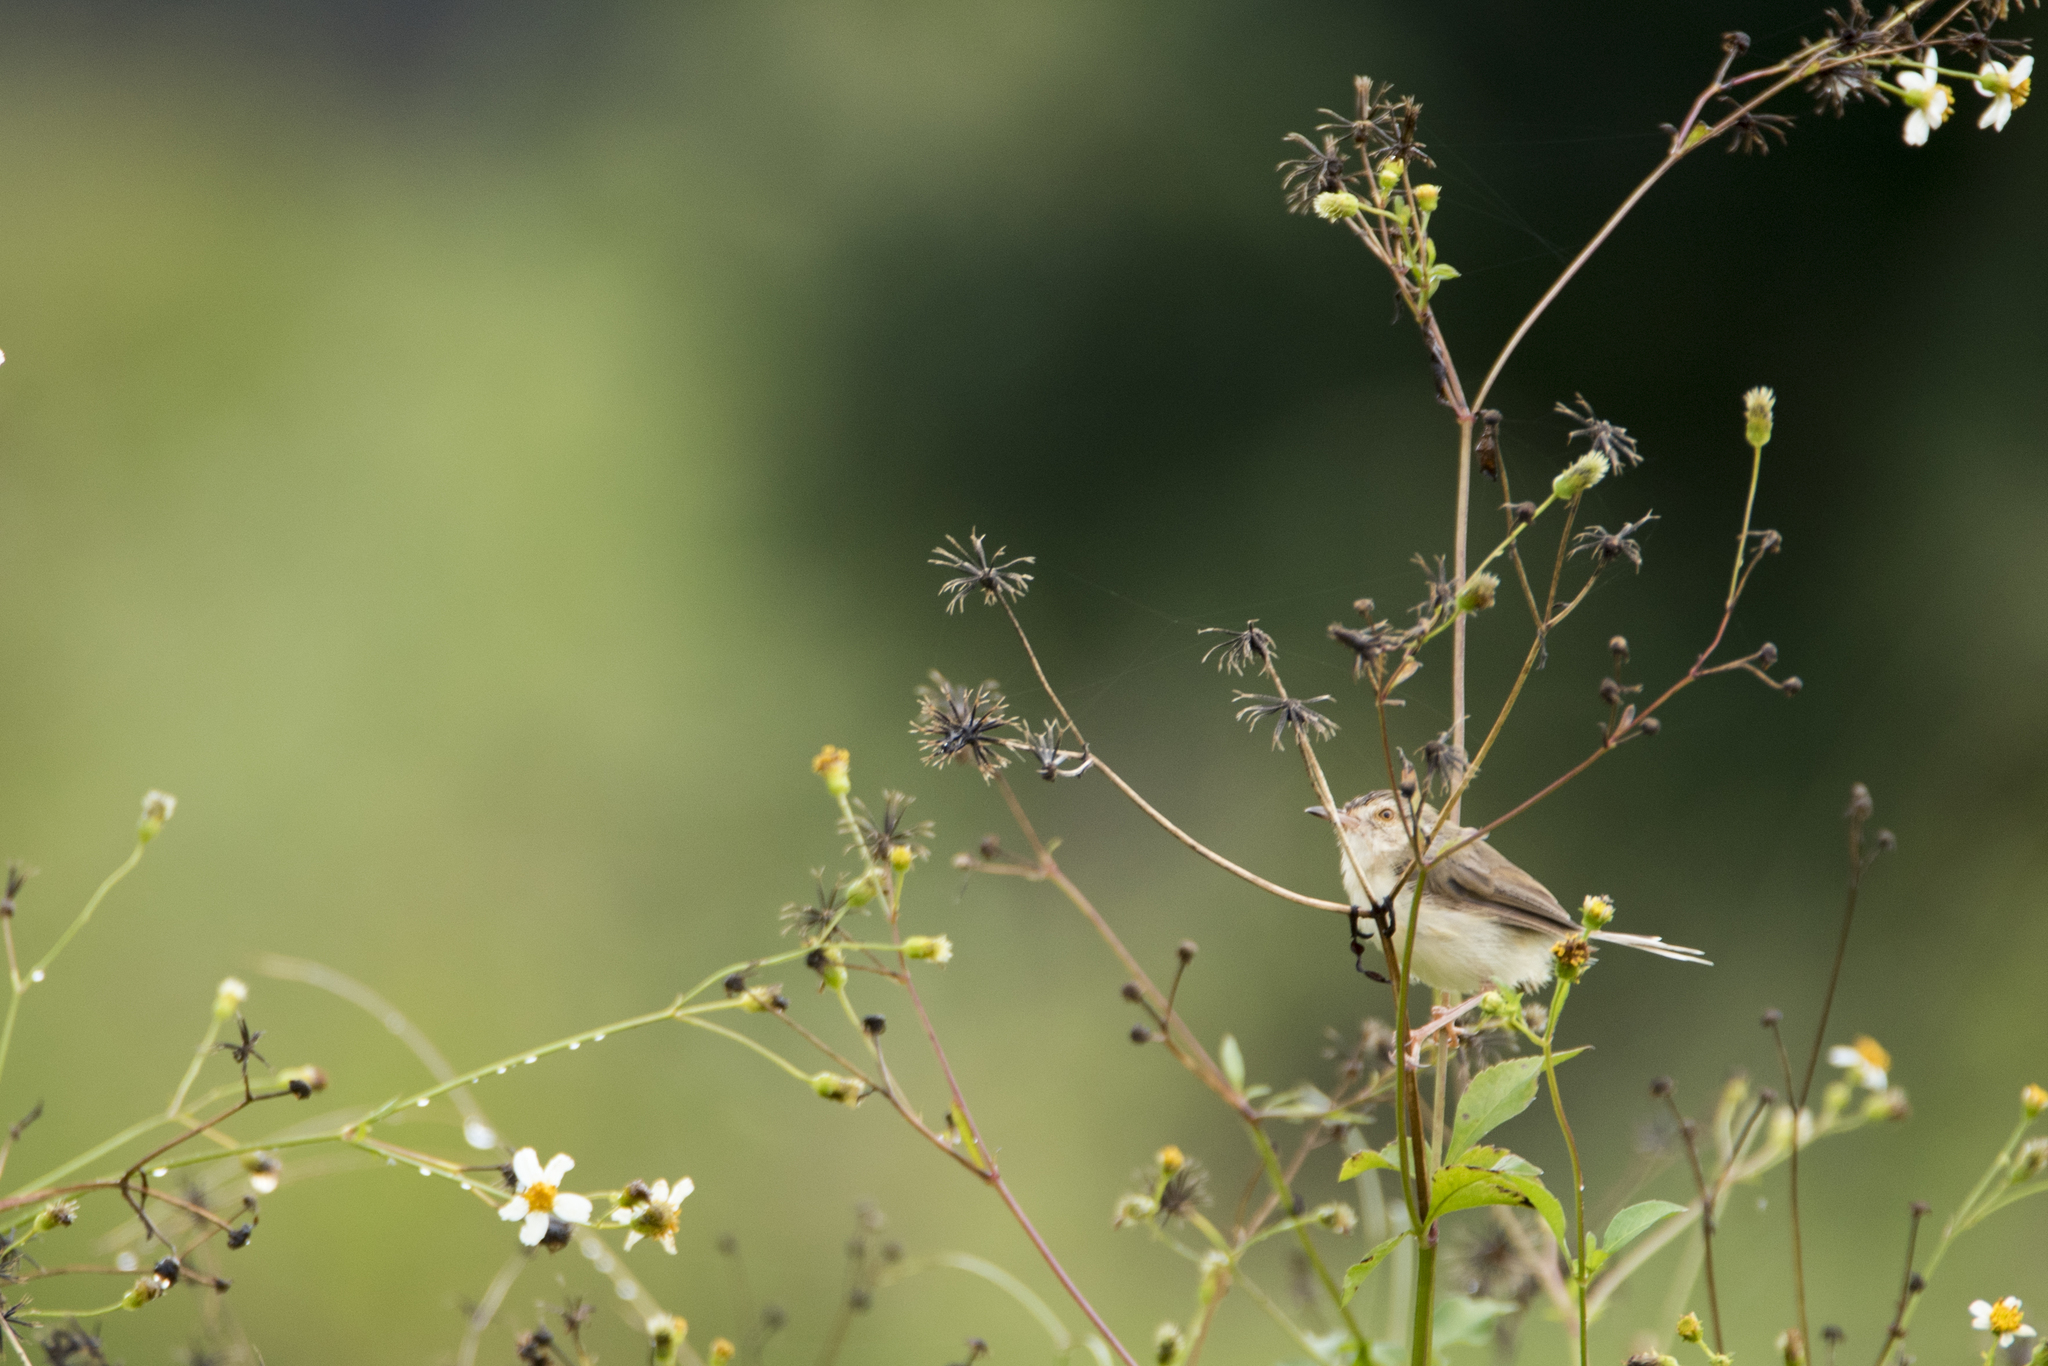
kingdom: Animalia
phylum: Chordata
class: Aves
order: Passeriformes
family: Cisticolidae
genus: Prinia
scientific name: Prinia inornata
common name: Plain prinia
